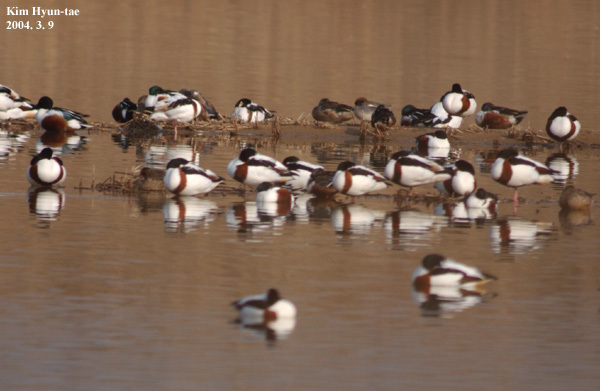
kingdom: Animalia
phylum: Chordata
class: Aves
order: Anseriformes
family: Anatidae
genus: Tadorna
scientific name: Tadorna tadorna
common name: Common shelduck
